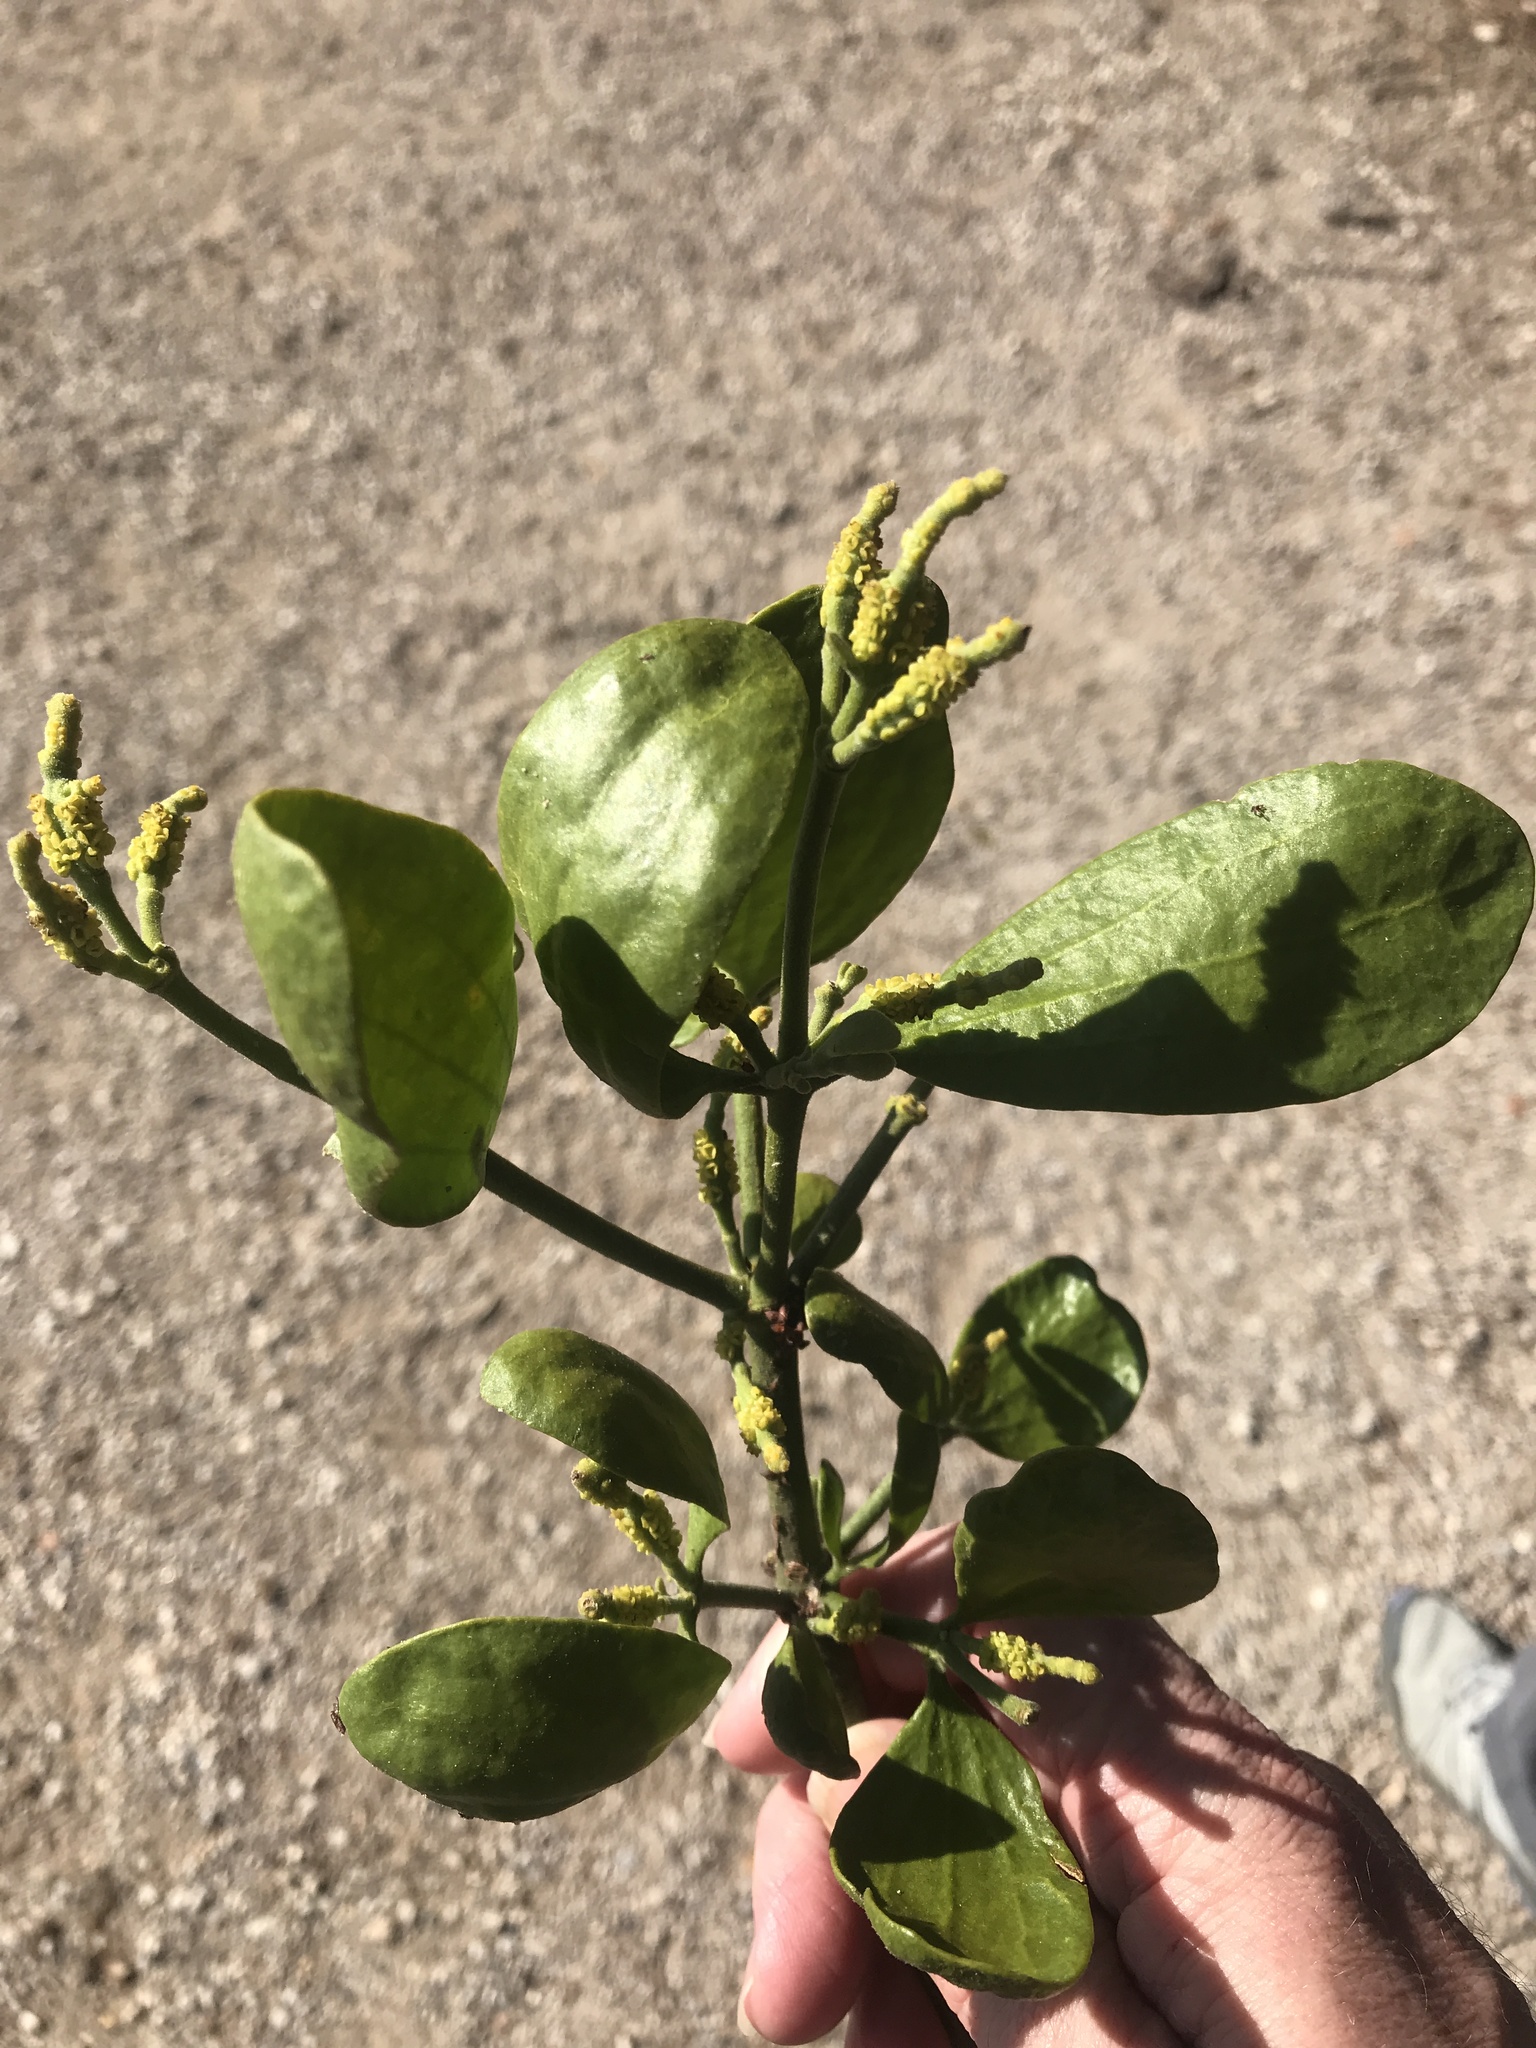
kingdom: Plantae
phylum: Tracheophyta
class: Magnoliopsida
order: Santalales
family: Viscaceae
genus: Phoradendron
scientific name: Phoradendron leucarpum
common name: Pacific mistletoe
